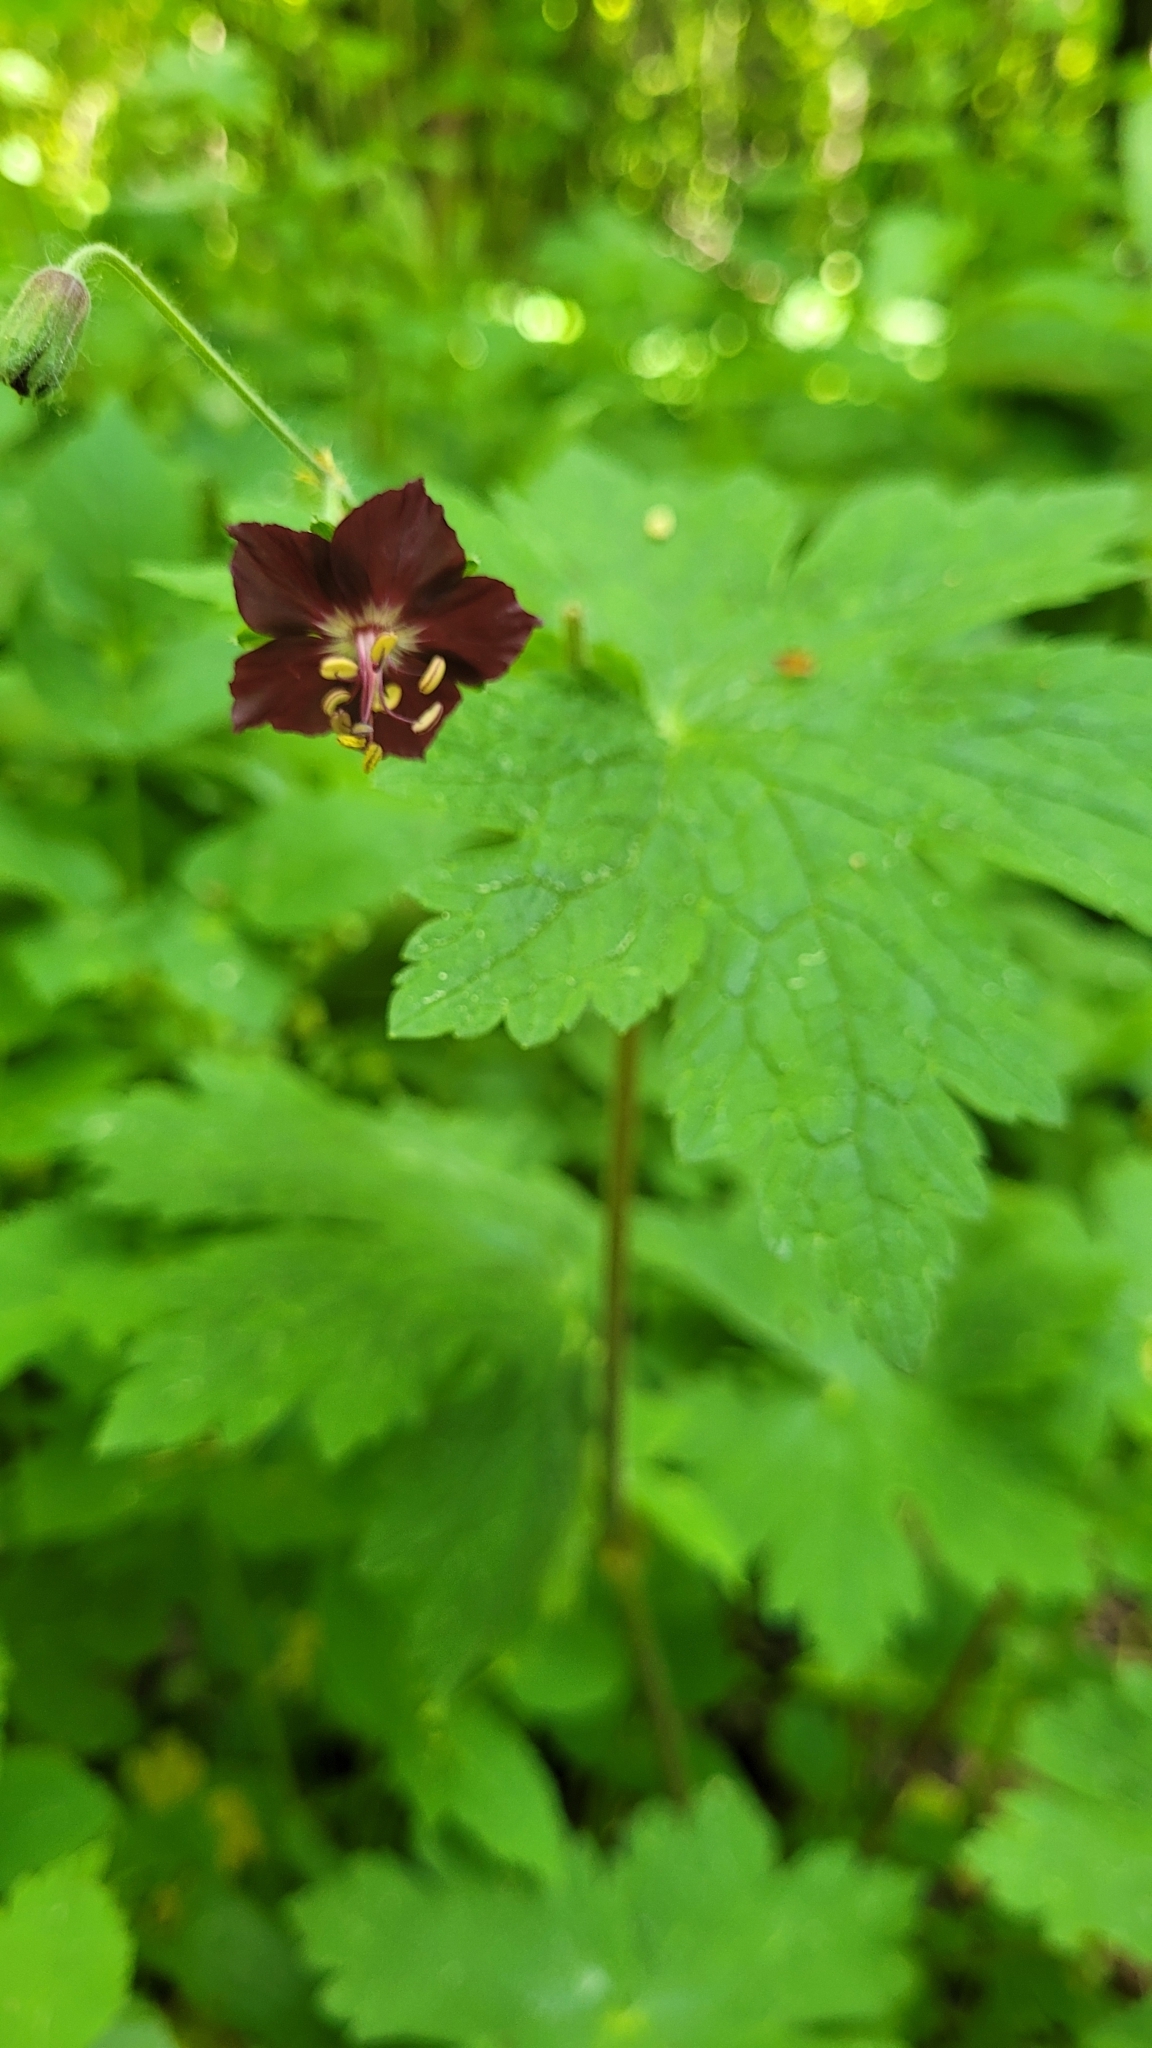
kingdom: Plantae
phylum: Tracheophyta
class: Magnoliopsida
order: Geraniales
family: Geraniaceae
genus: Geranium
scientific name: Geranium phaeum
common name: Dusky crane's-bill
